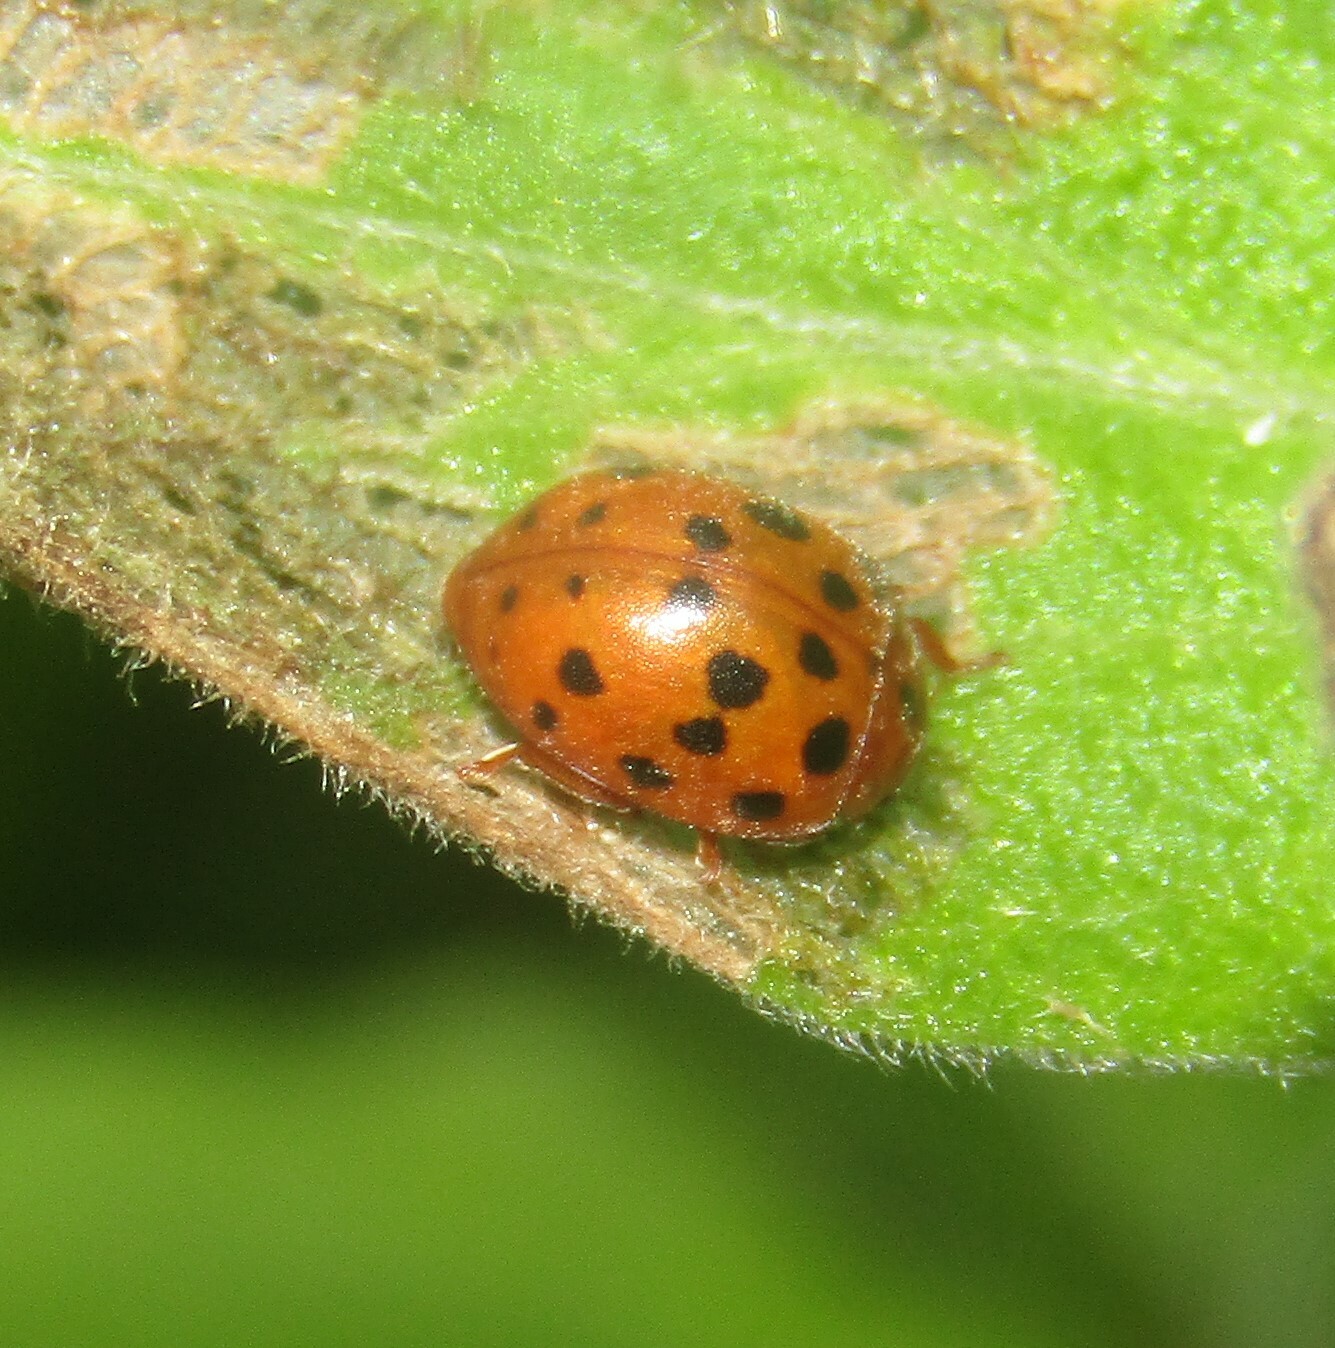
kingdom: Animalia
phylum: Arthropoda
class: Insecta
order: Coleoptera
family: Coccinellidae
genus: Subcoccinella
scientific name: Subcoccinella vigintiquatuorpunctata
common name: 24-spot ladybird
